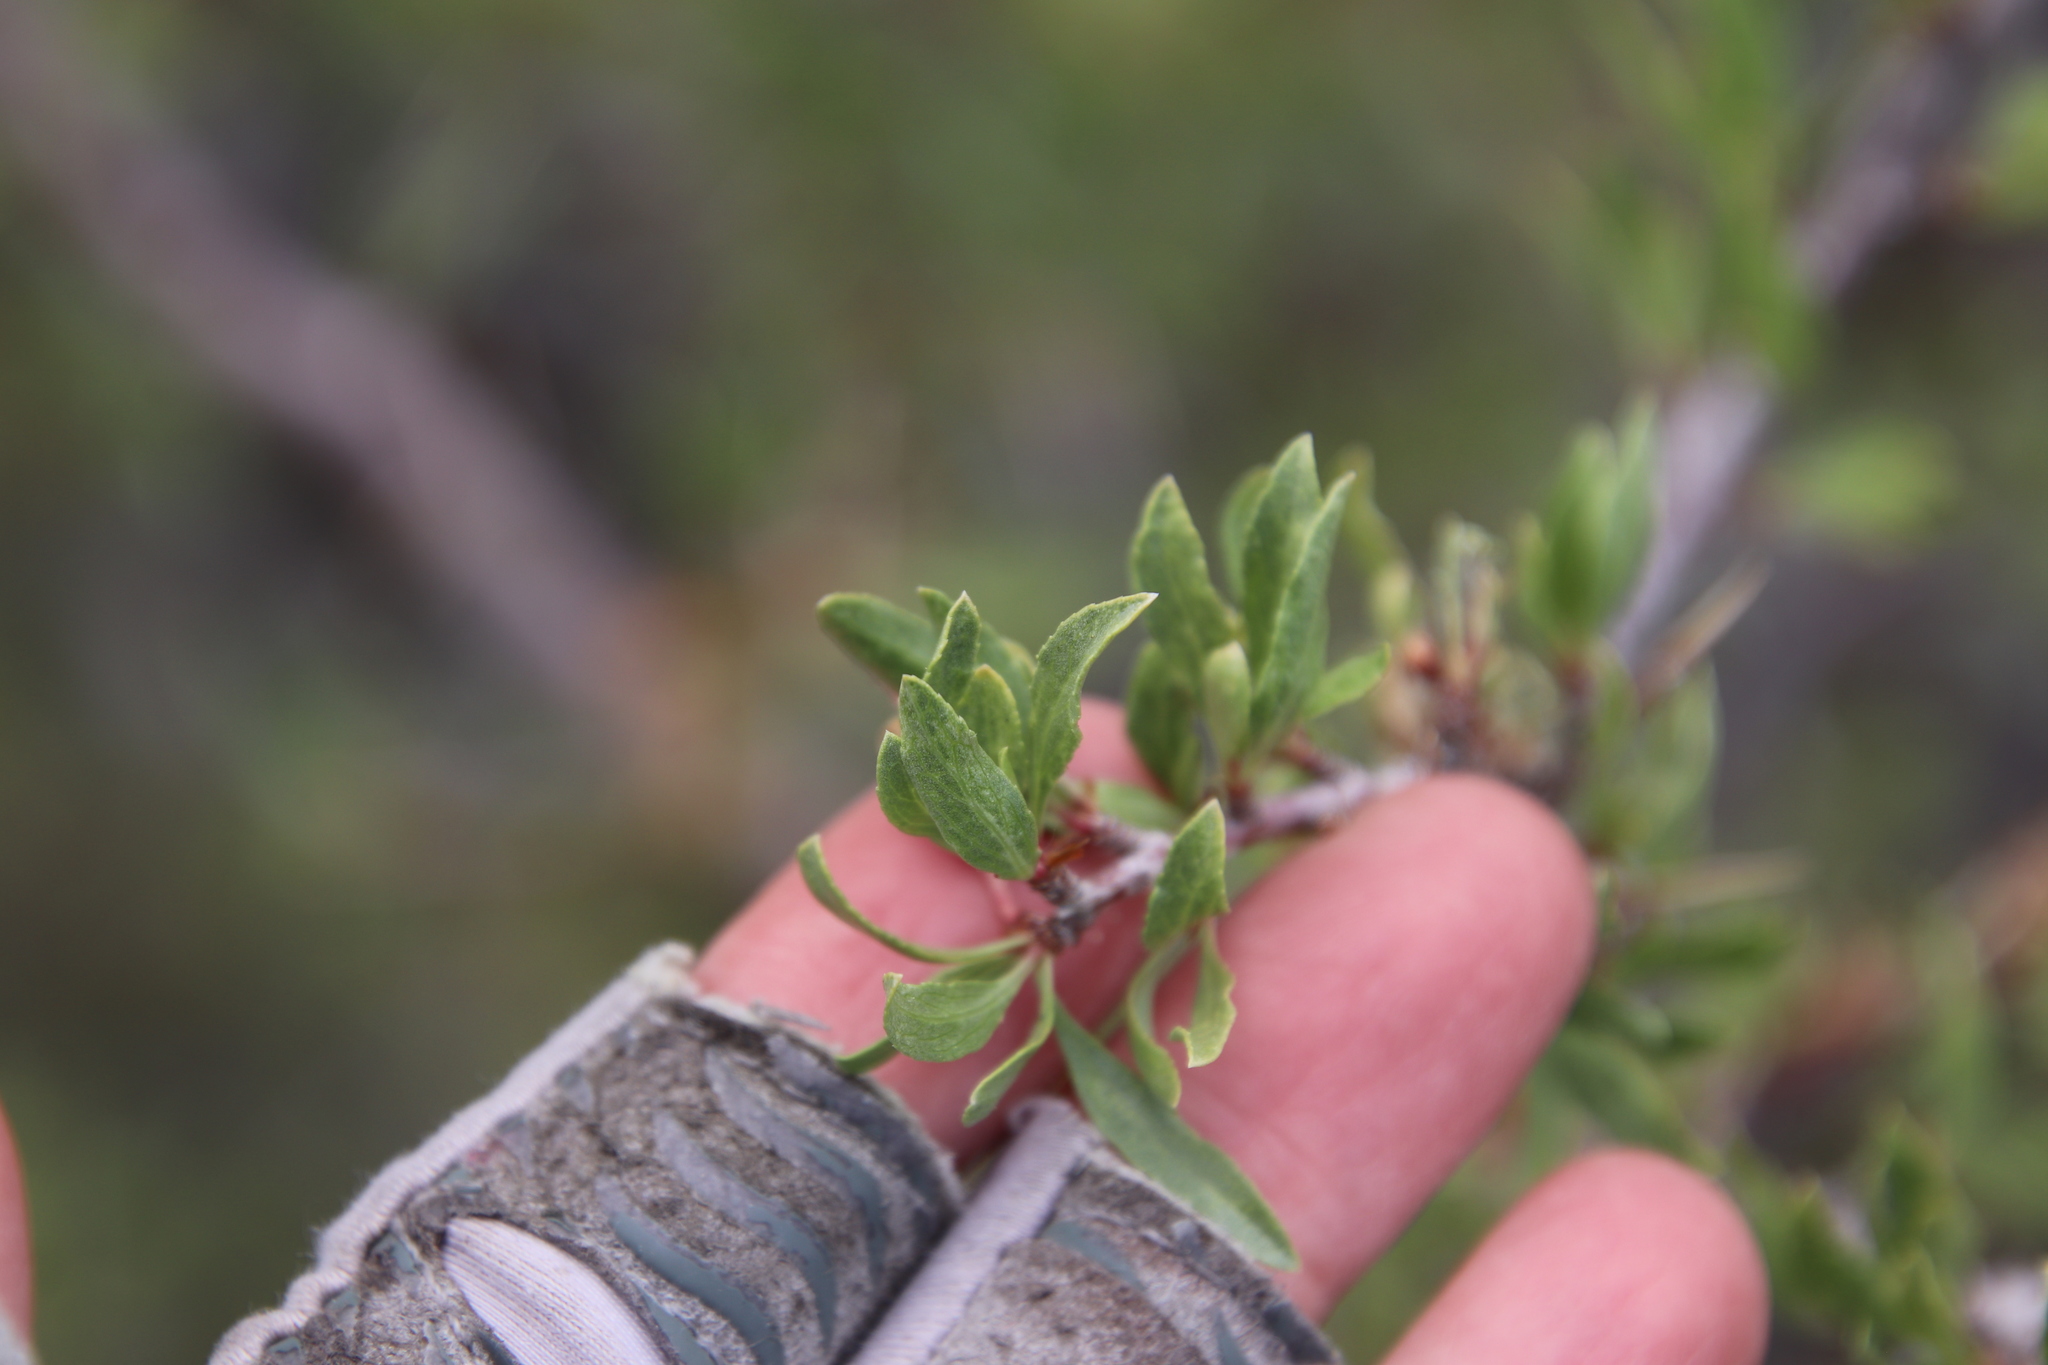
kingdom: Plantae
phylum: Tracheophyta
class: Magnoliopsida
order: Rosales
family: Rosaceae
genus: Prunus
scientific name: Prunus andersonii
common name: Desert peach
